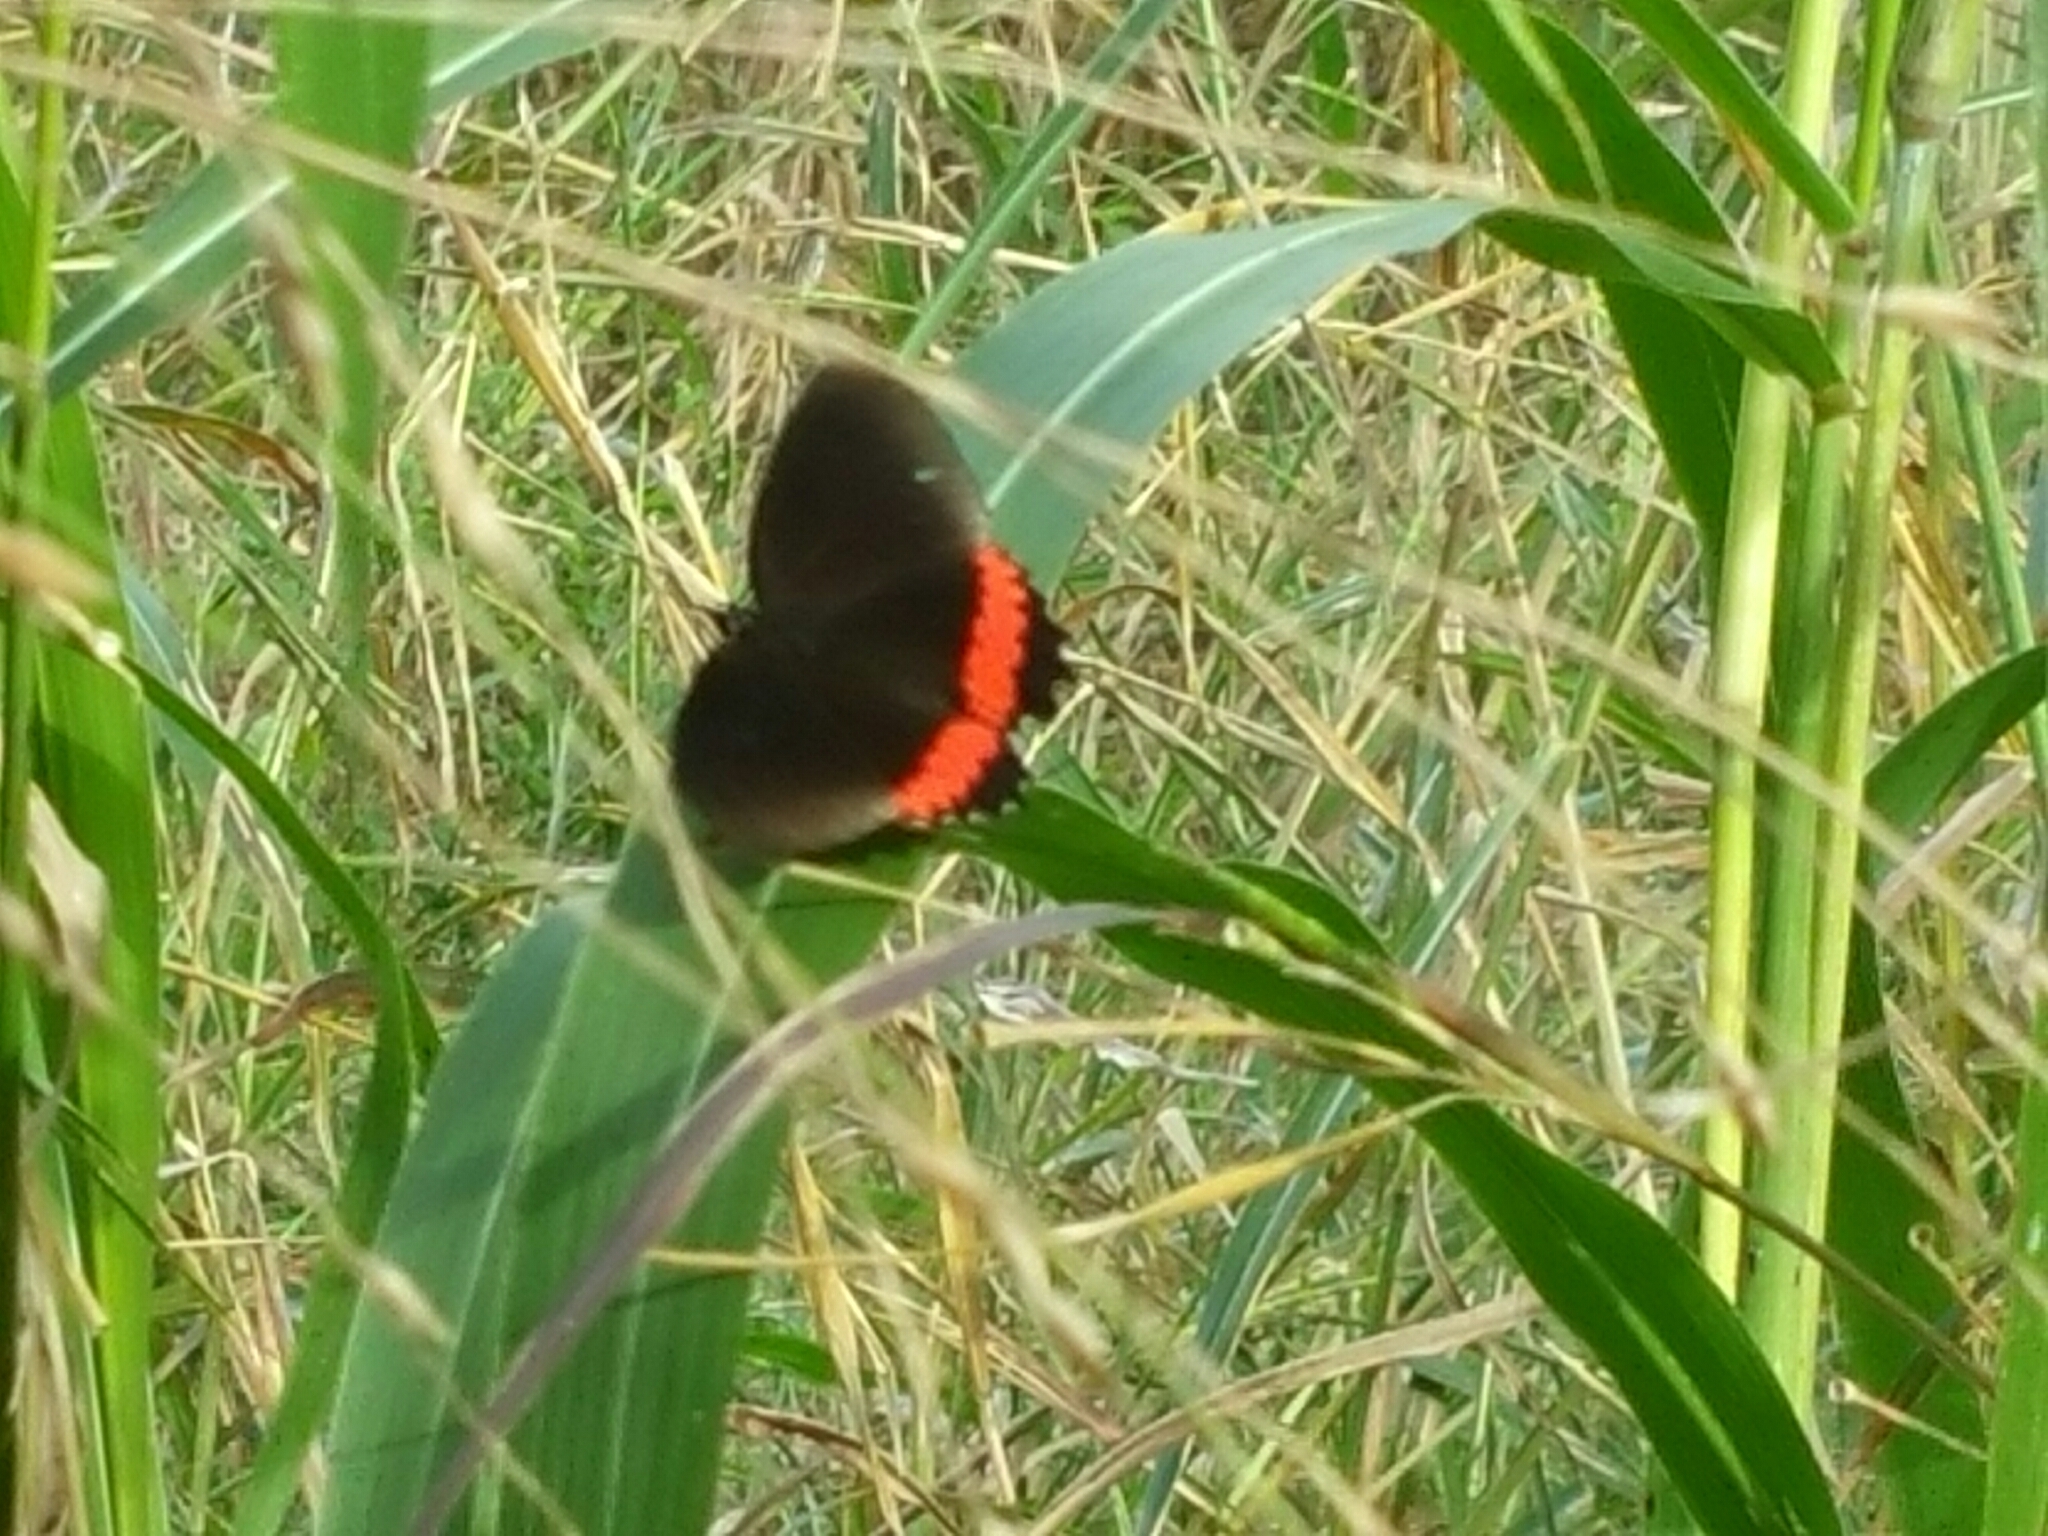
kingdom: Animalia
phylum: Arthropoda
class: Insecta
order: Lepidoptera
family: Nymphalidae
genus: Biblis
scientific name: Biblis aganisa
